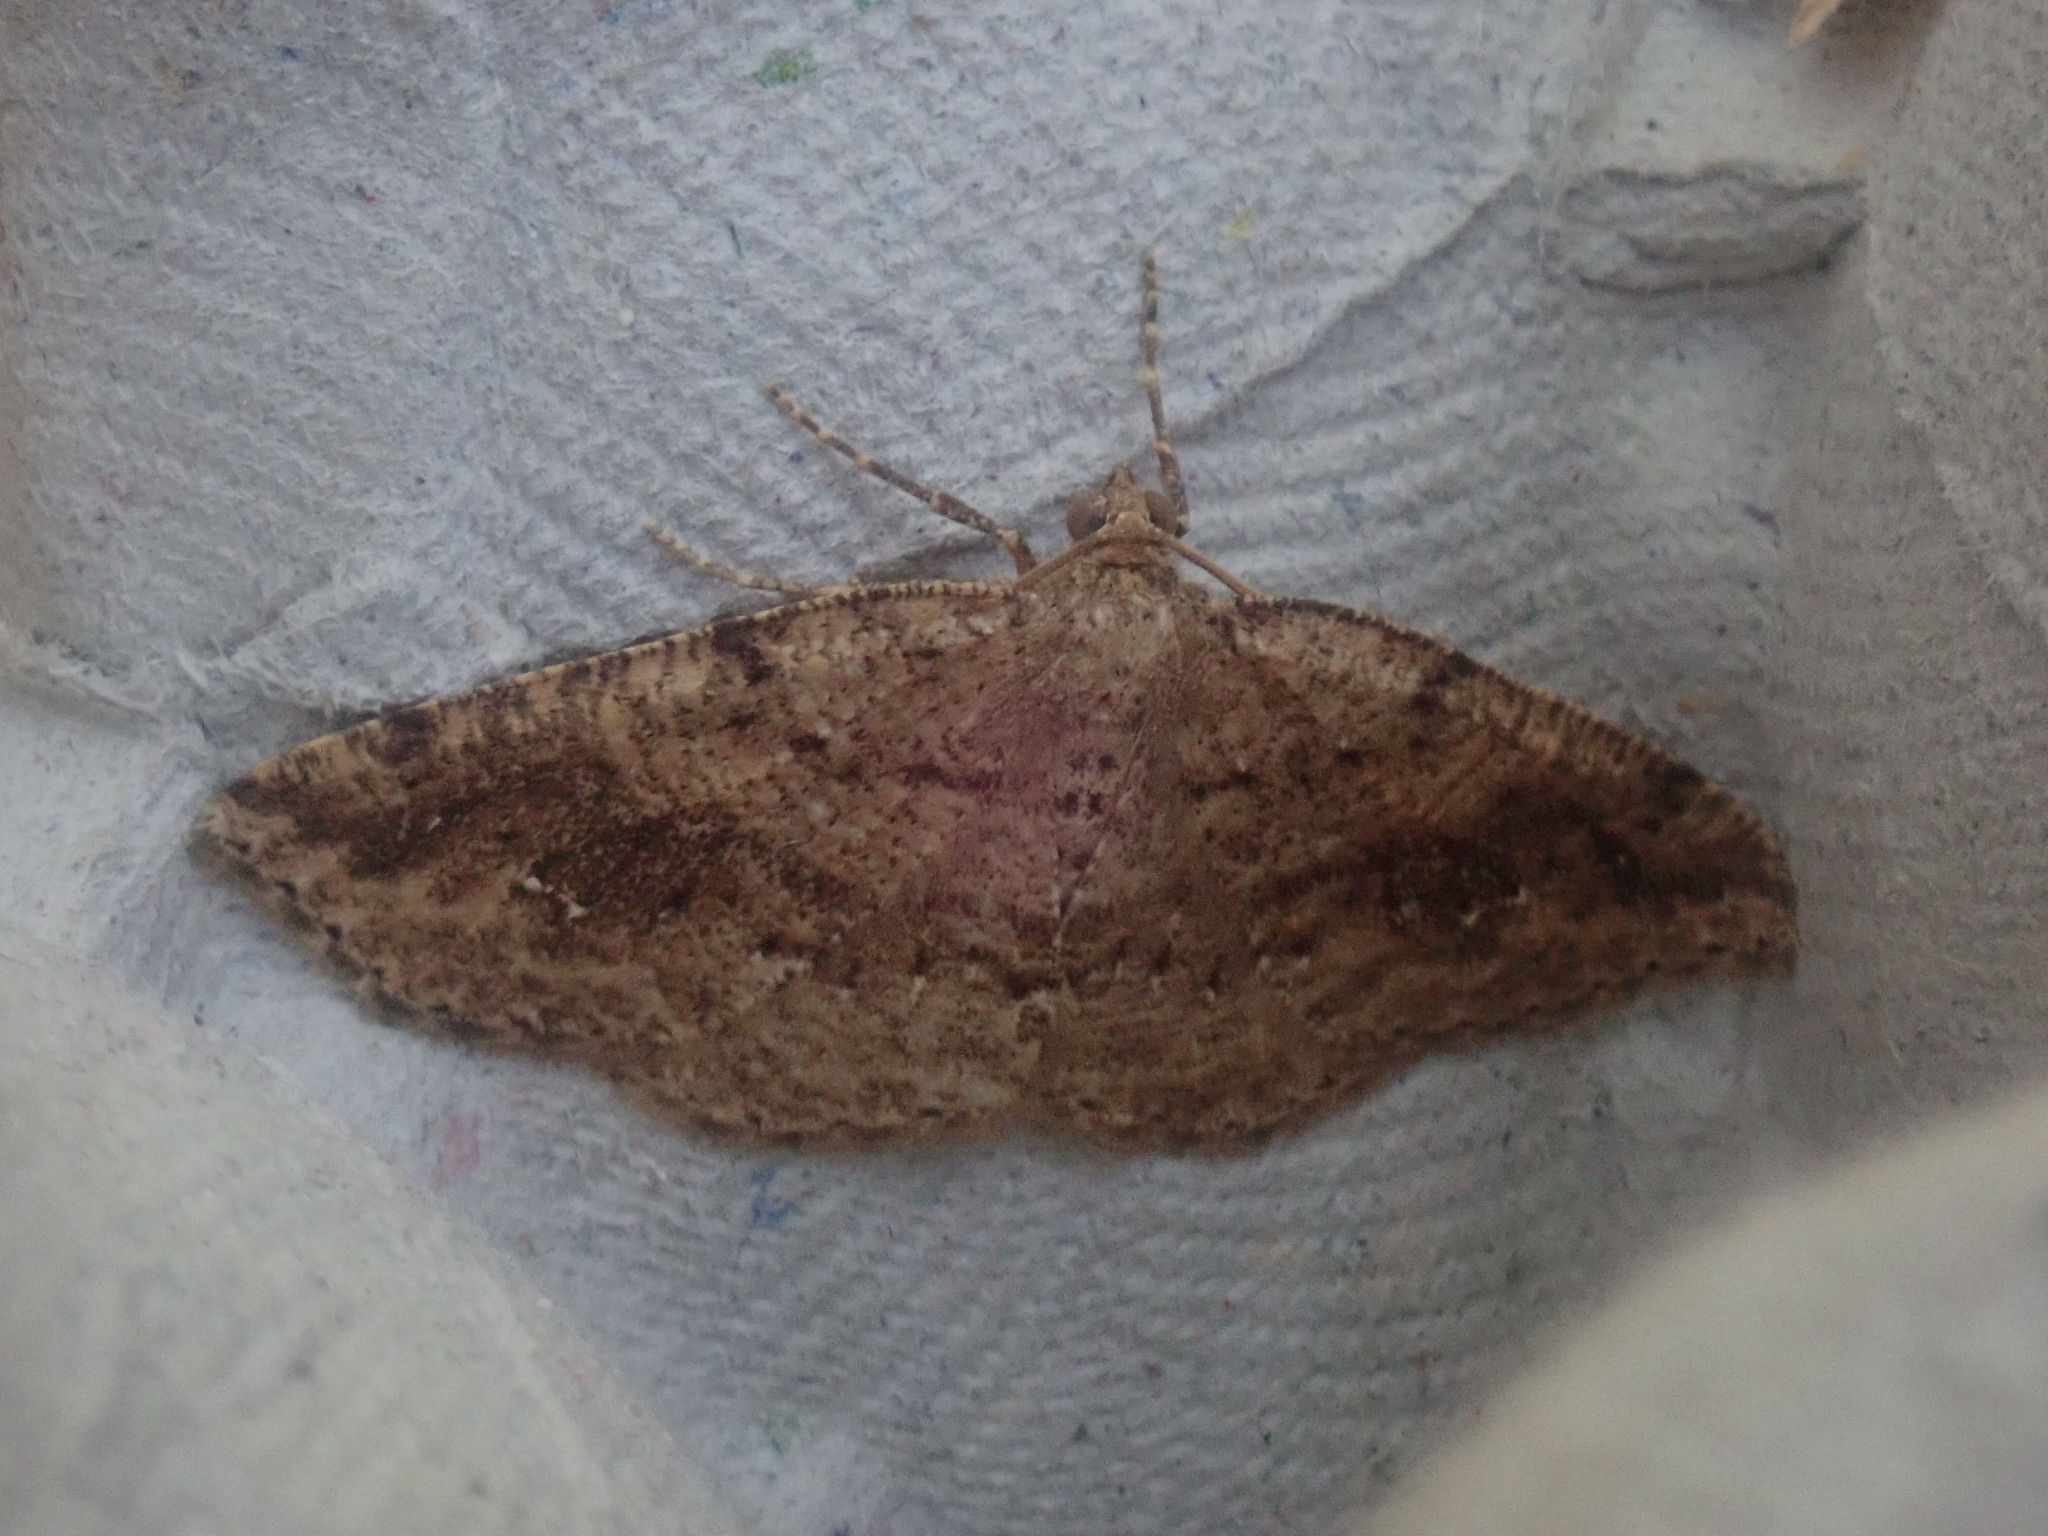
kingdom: Animalia
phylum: Arthropoda
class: Insecta
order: Lepidoptera
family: Geometridae
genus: Homochlodes
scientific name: Homochlodes fritillaria
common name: Pale homochlodes
